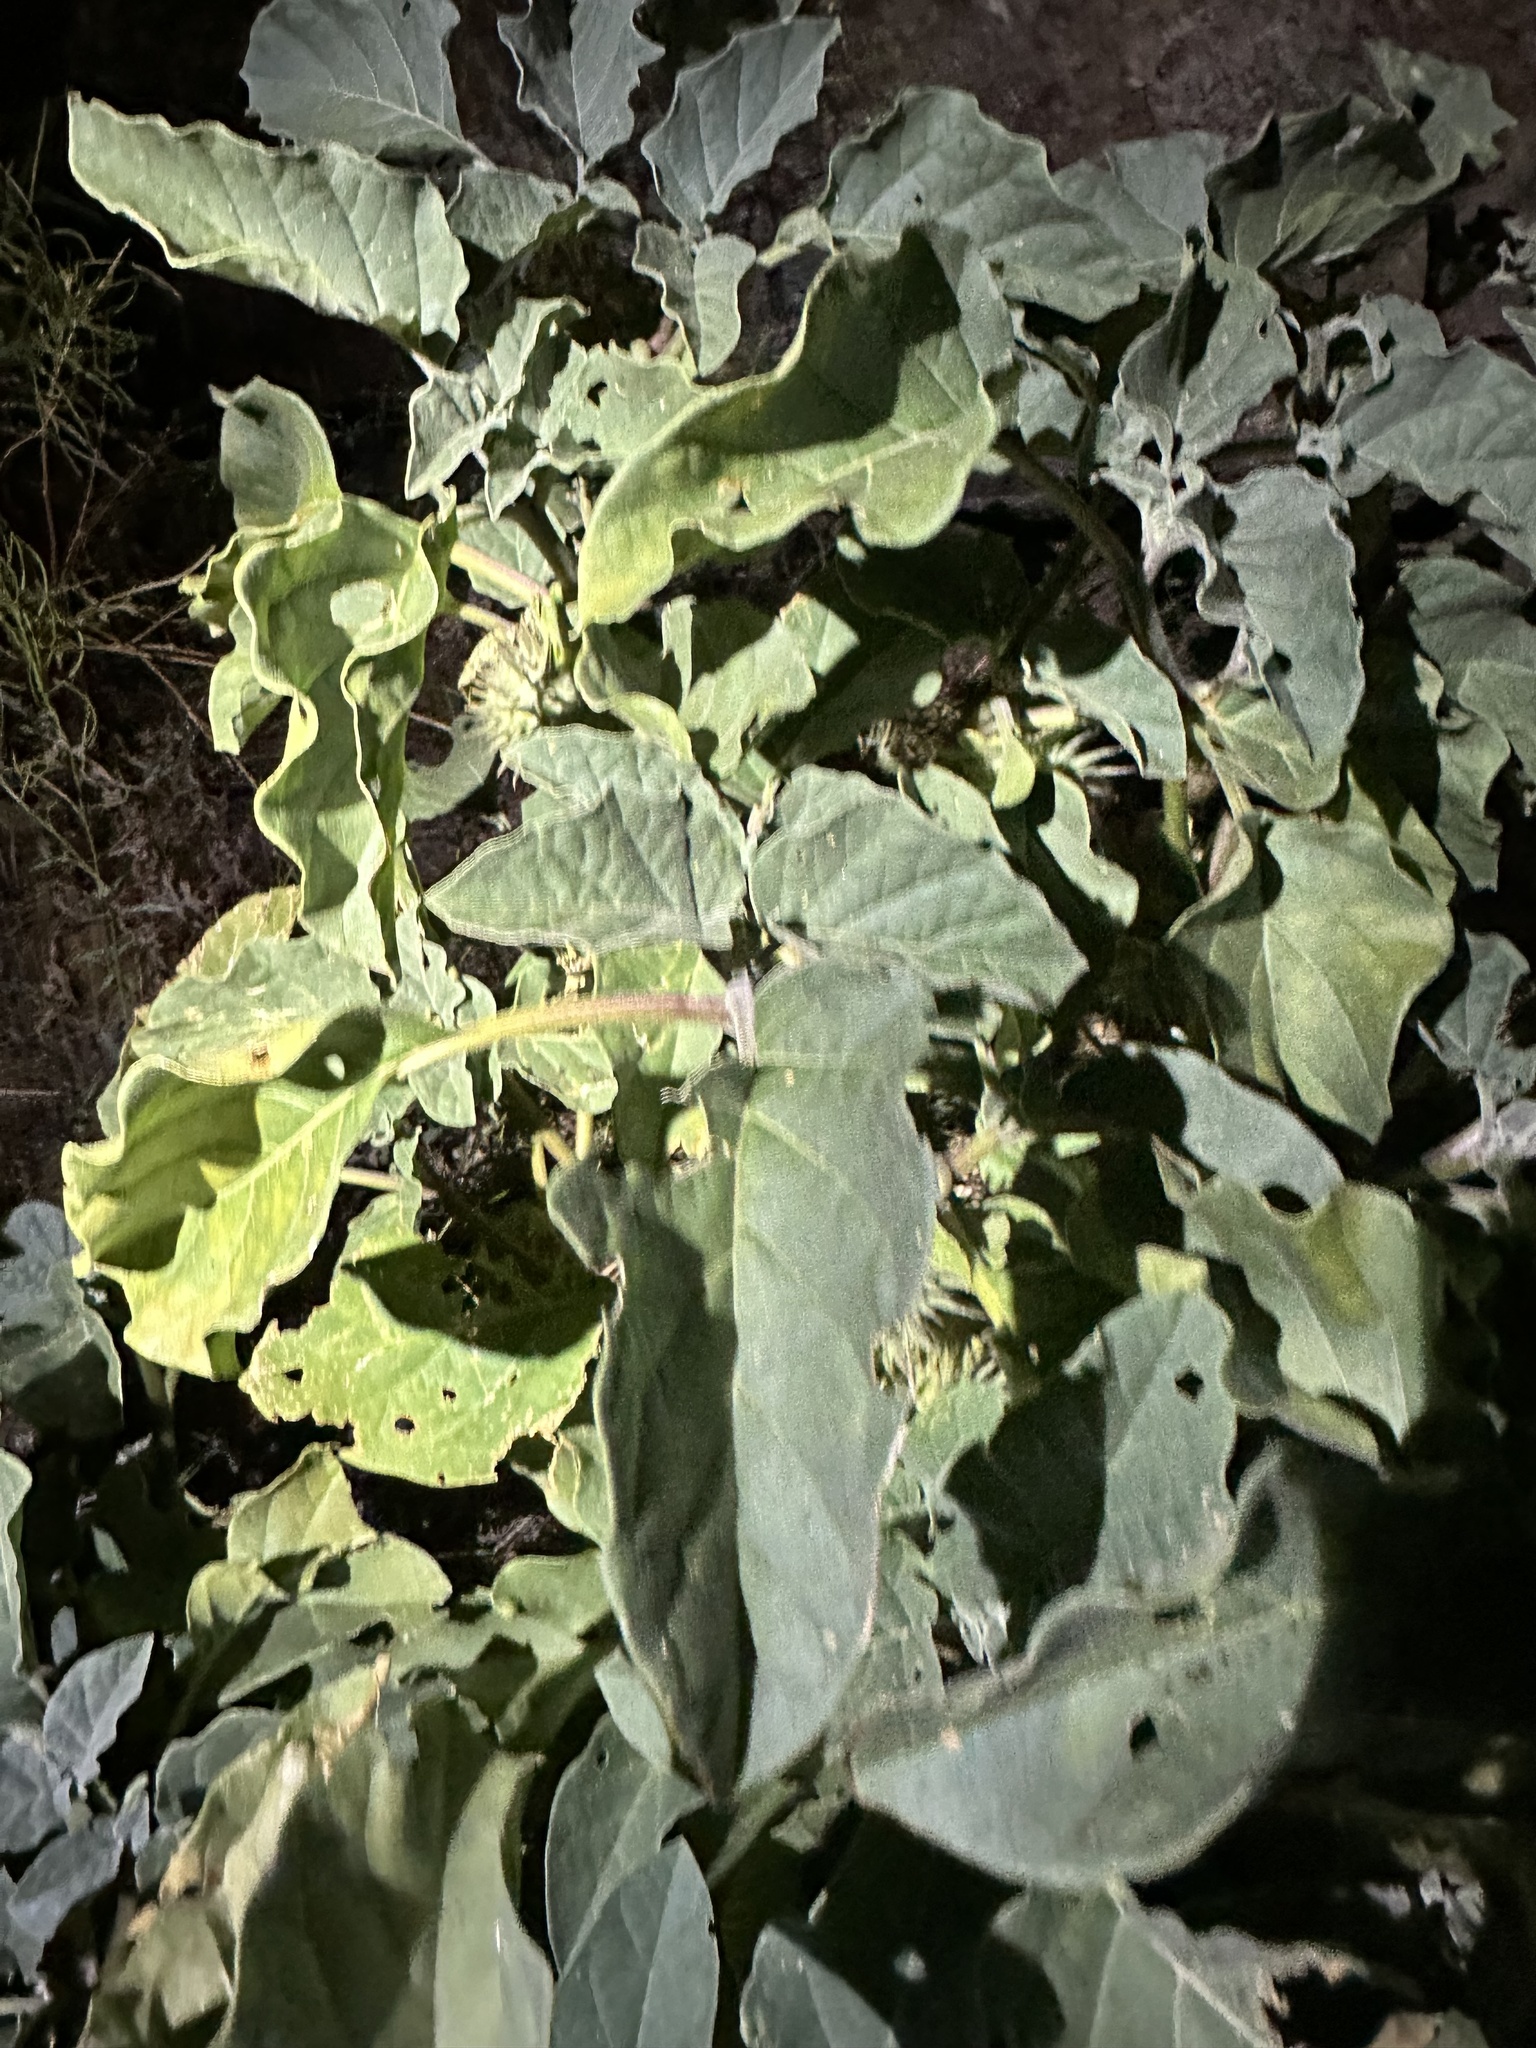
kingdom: Plantae
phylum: Tracheophyta
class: Magnoliopsida
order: Solanales
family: Solanaceae
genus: Datura
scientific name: Datura discolor
